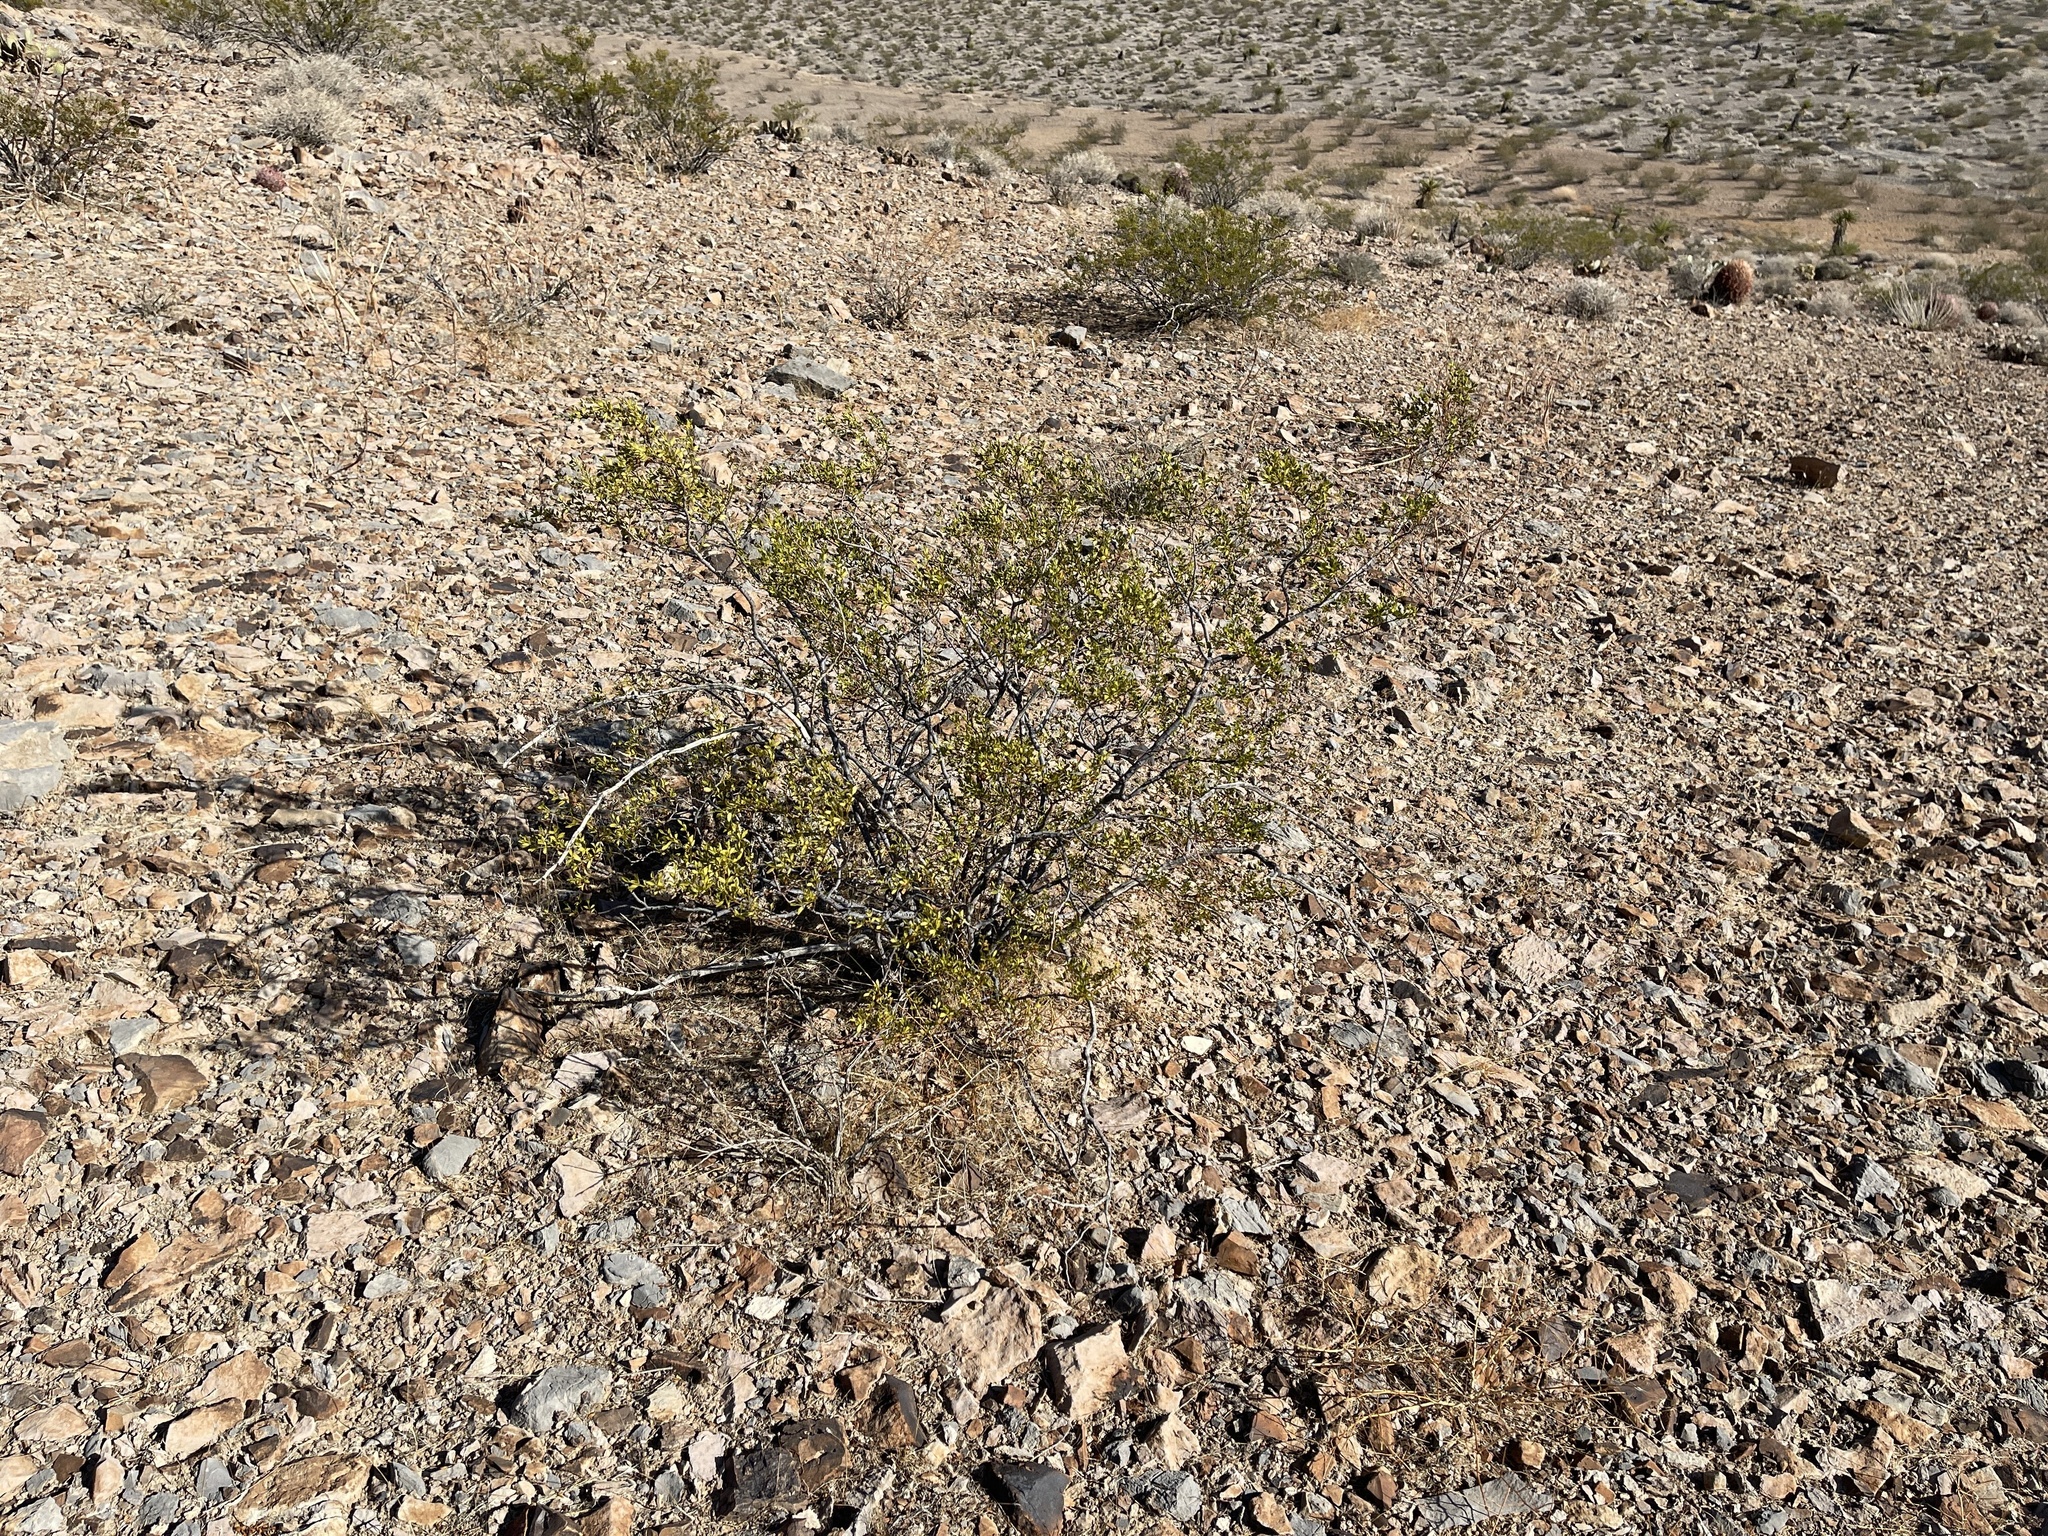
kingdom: Plantae
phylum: Tracheophyta
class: Magnoliopsida
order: Zygophyllales
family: Zygophyllaceae
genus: Larrea
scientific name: Larrea tridentata
